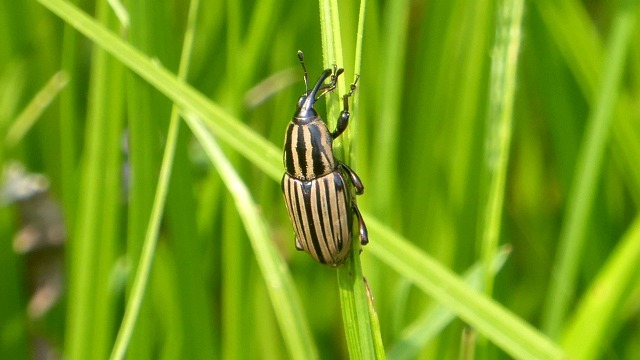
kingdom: Animalia
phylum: Arthropoda
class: Insecta
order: Coleoptera
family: Dryophthoridae
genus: Sphenophorus
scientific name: Sphenophorus villosiventris
